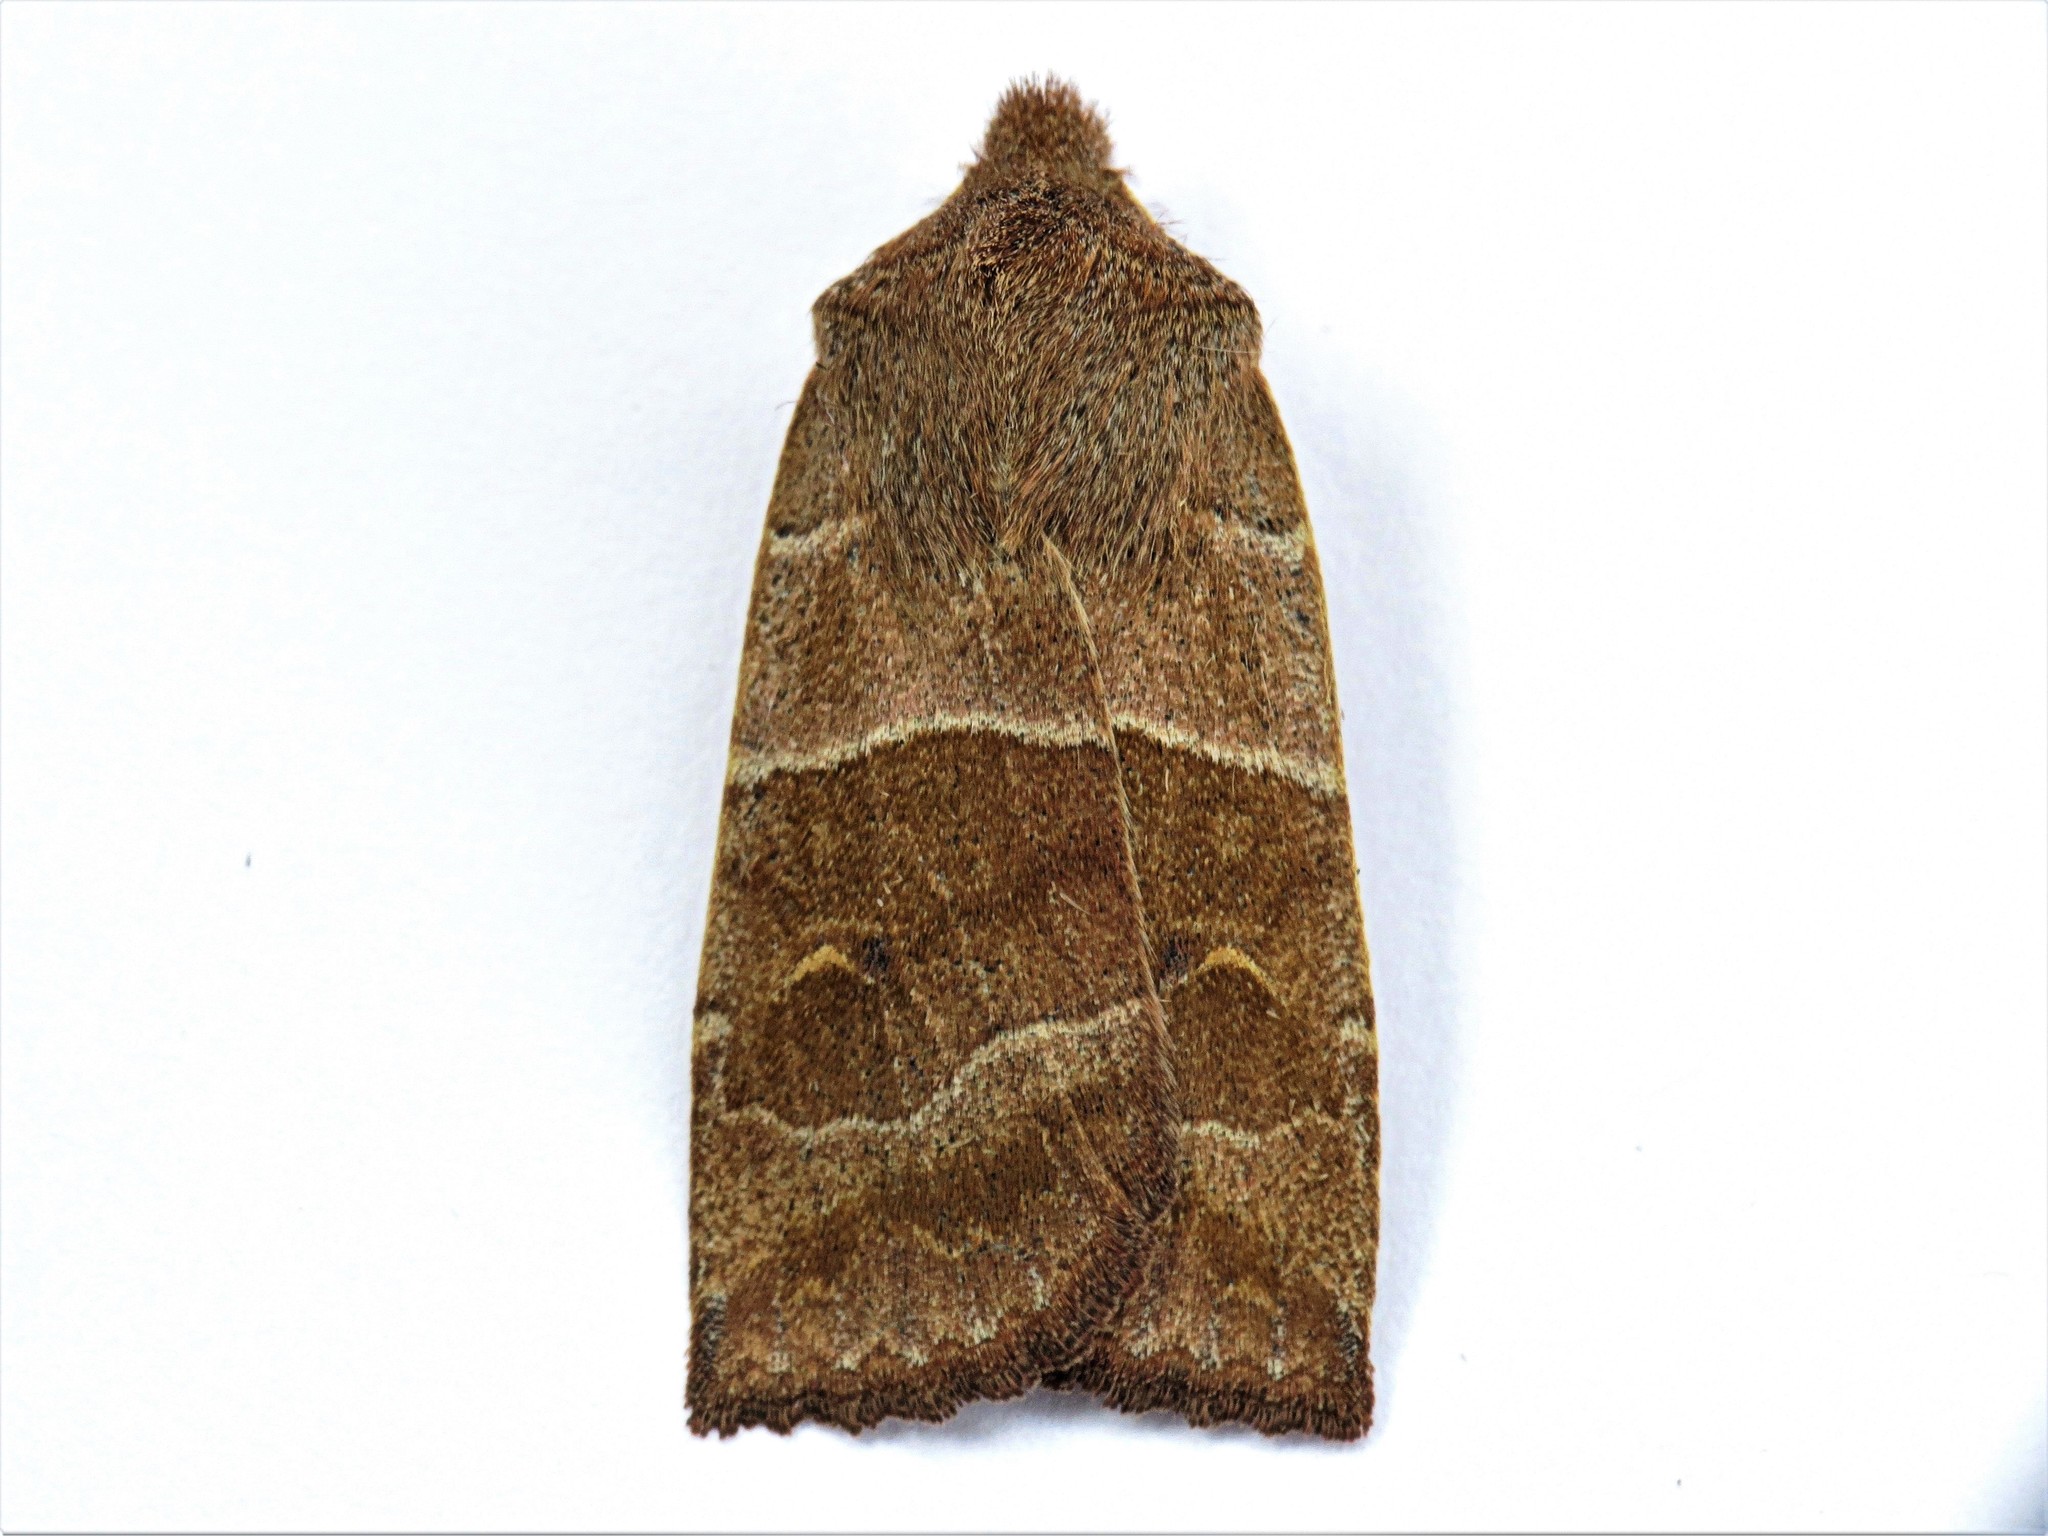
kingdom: Animalia
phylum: Arthropoda
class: Insecta
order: Lepidoptera
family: Noctuidae
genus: Eupsilia
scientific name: Eupsilia morrisoni
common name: Morrison's sallow
